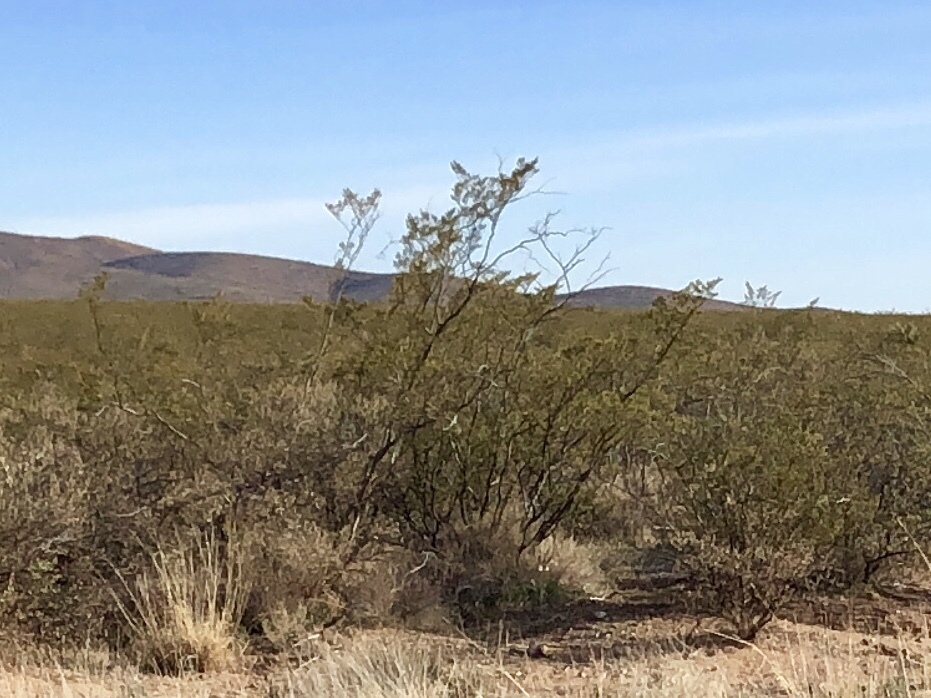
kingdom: Plantae
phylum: Tracheophyta
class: Magnoliopsida
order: Zygophyllales
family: Zygophyllaceae
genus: Larrea
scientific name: Larrea tridentata
